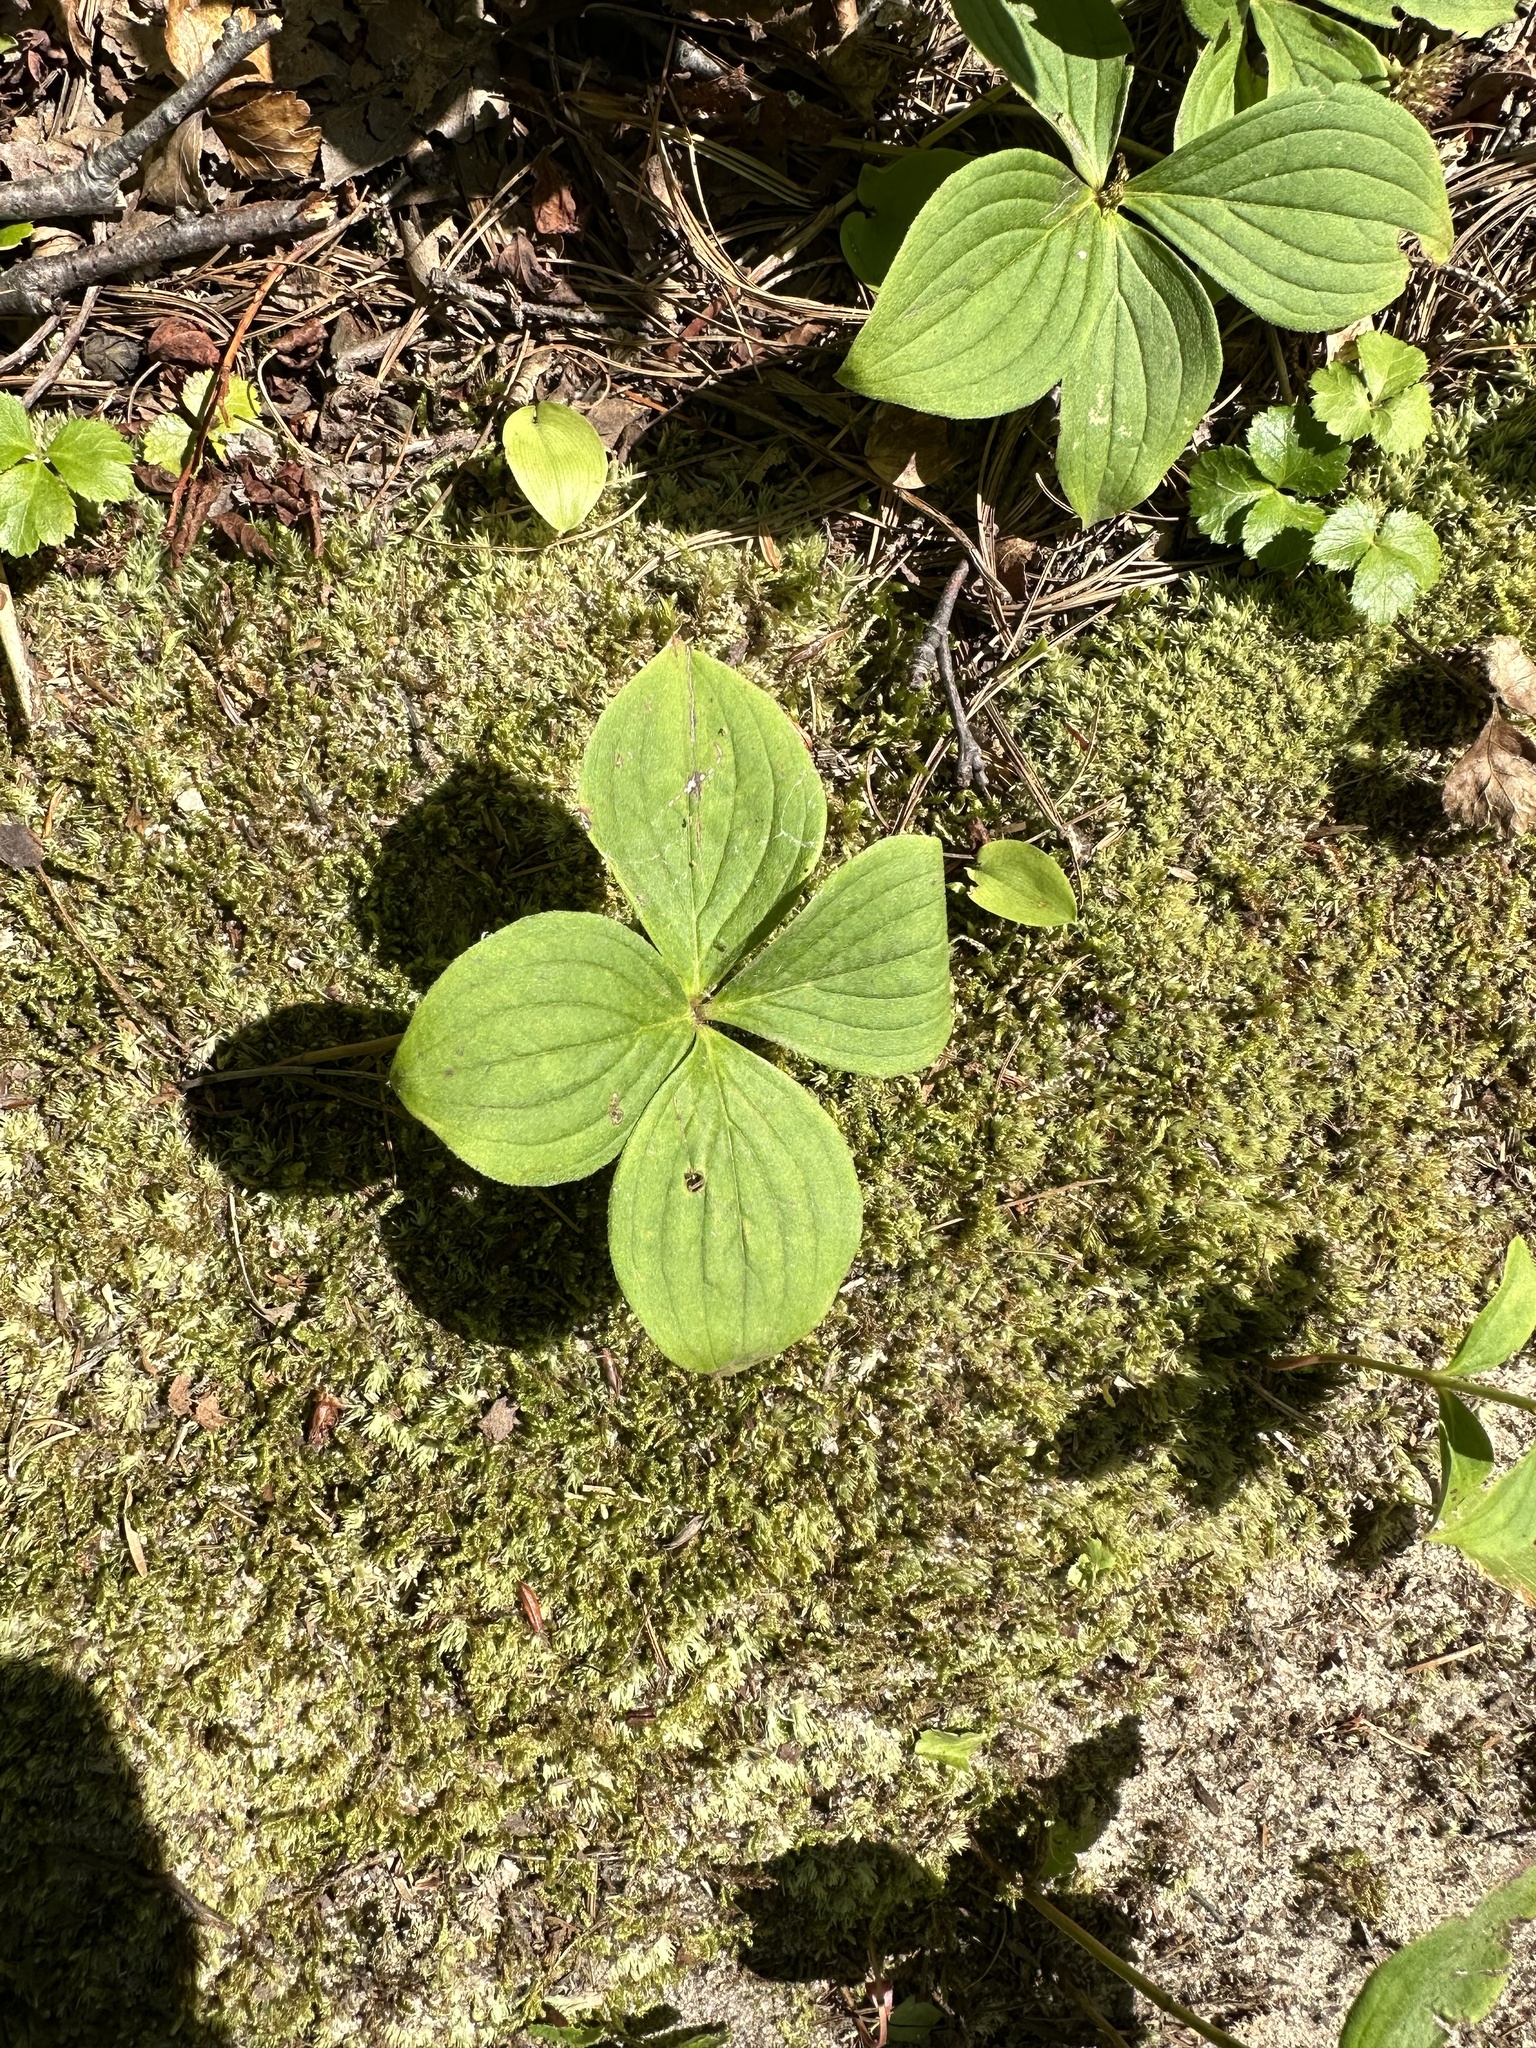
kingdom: Plantae
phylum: Tracheophyta
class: Magnoliopsida
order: Cornales
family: Cornaceae
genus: Cornus
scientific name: Cornus canadensis
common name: Creeping dogwood
